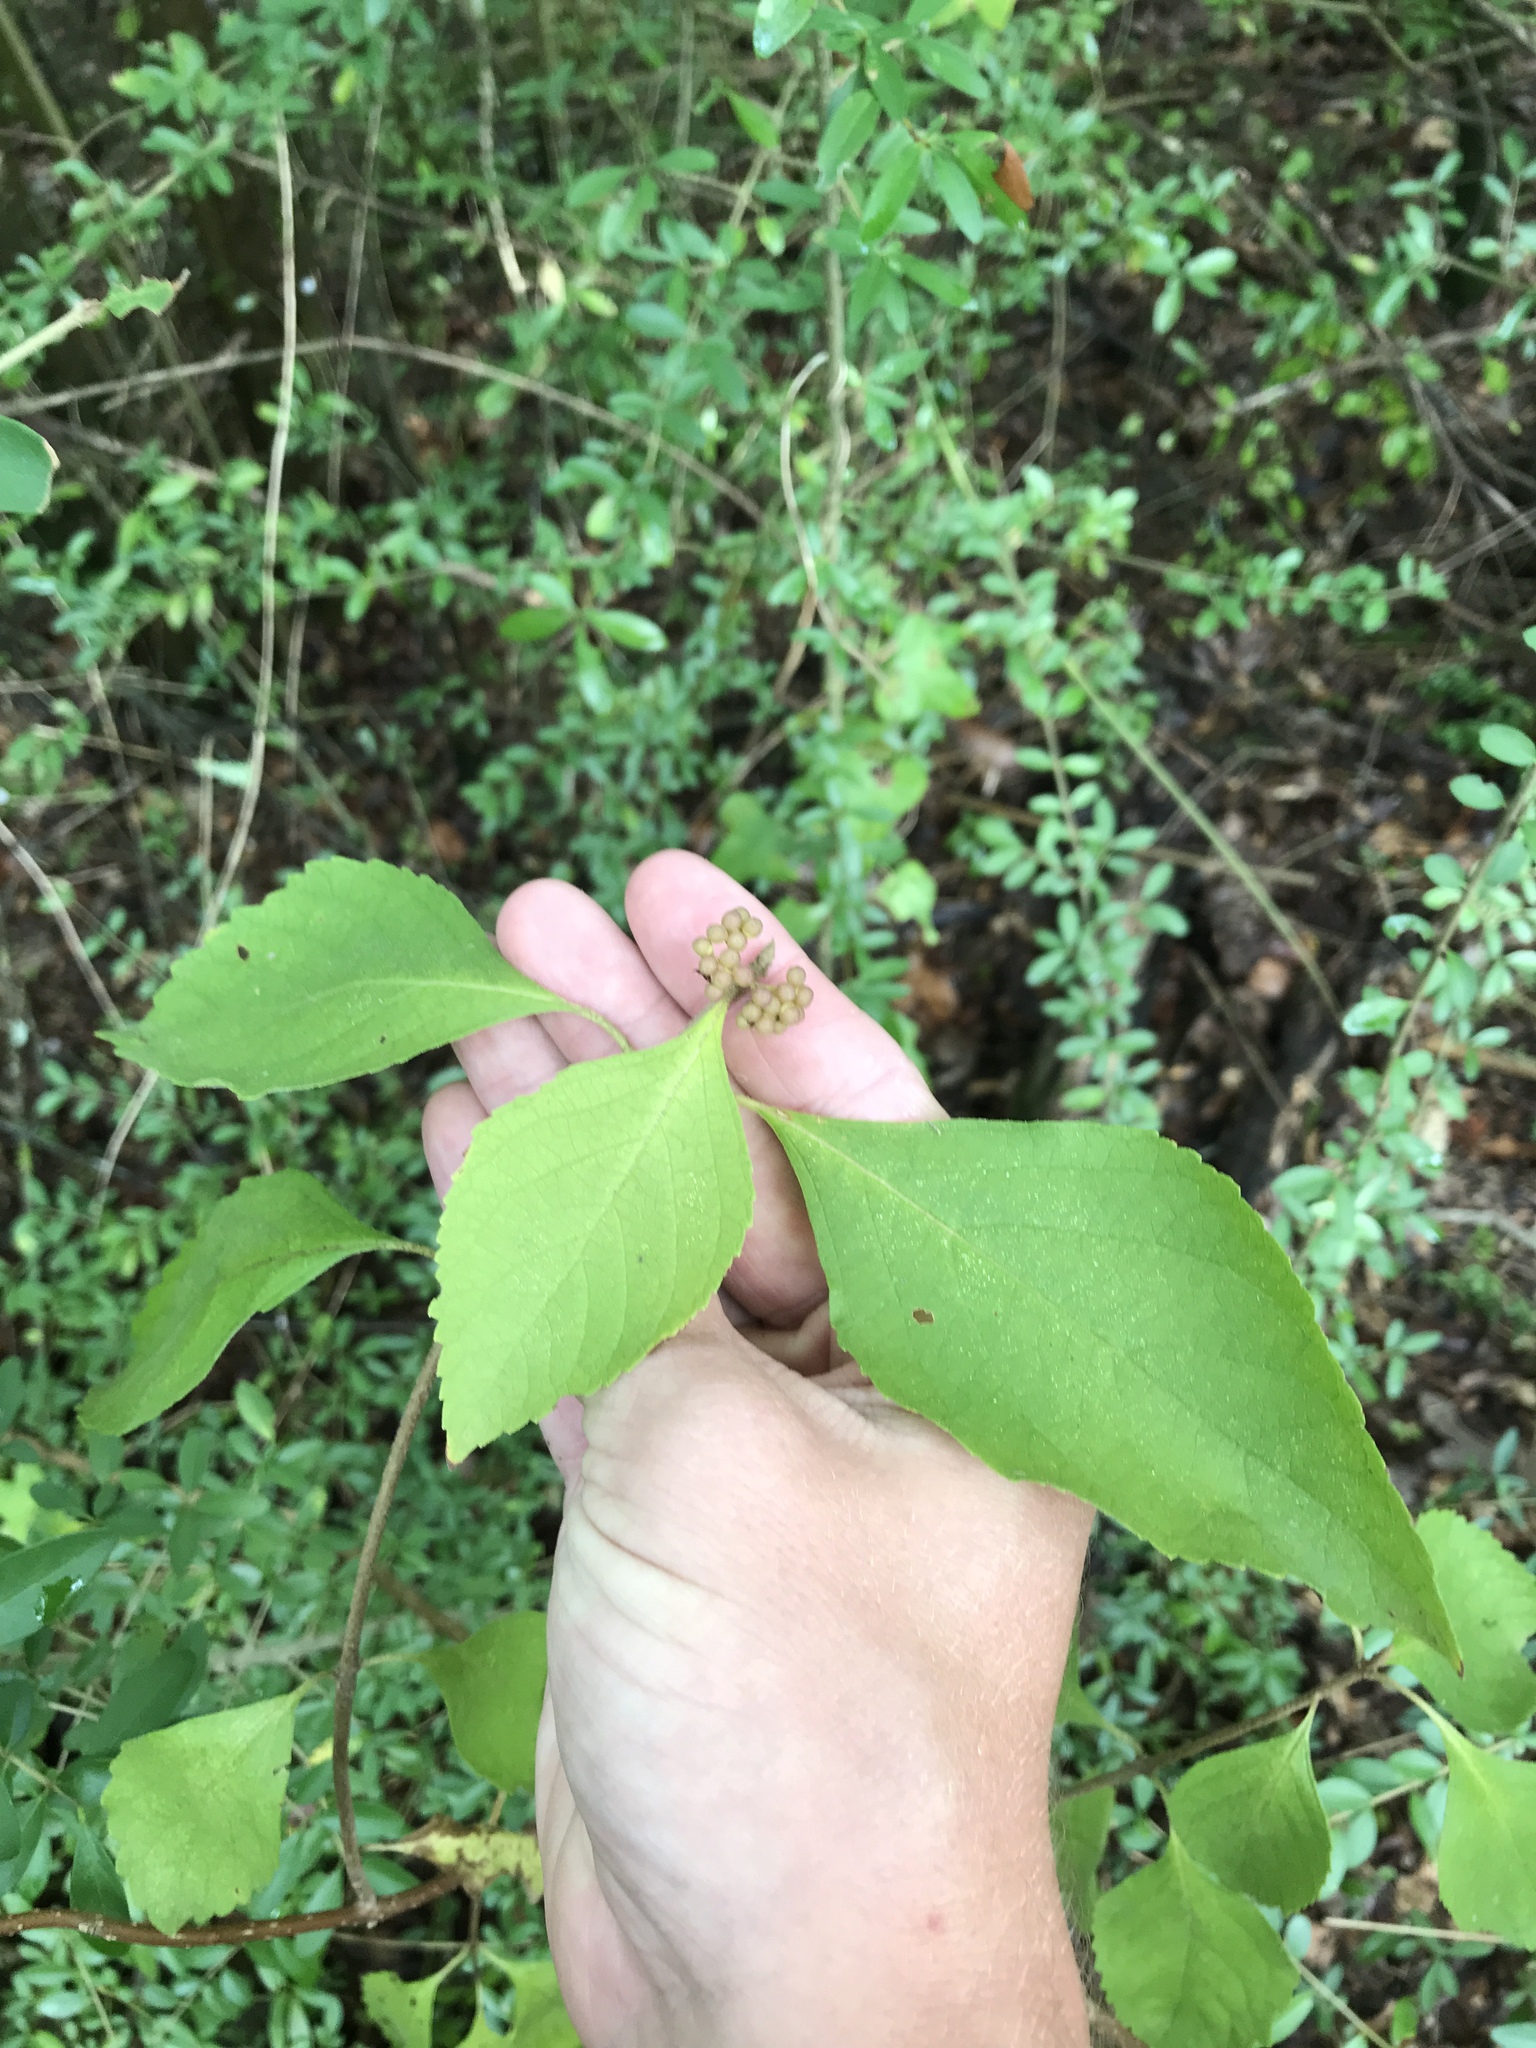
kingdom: Plantae
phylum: Tracheophyta
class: Magnoliopsida
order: Lamiales
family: Lamiaceae
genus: Callicarpa
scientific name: Callicarpa americana
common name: American beautyberry
